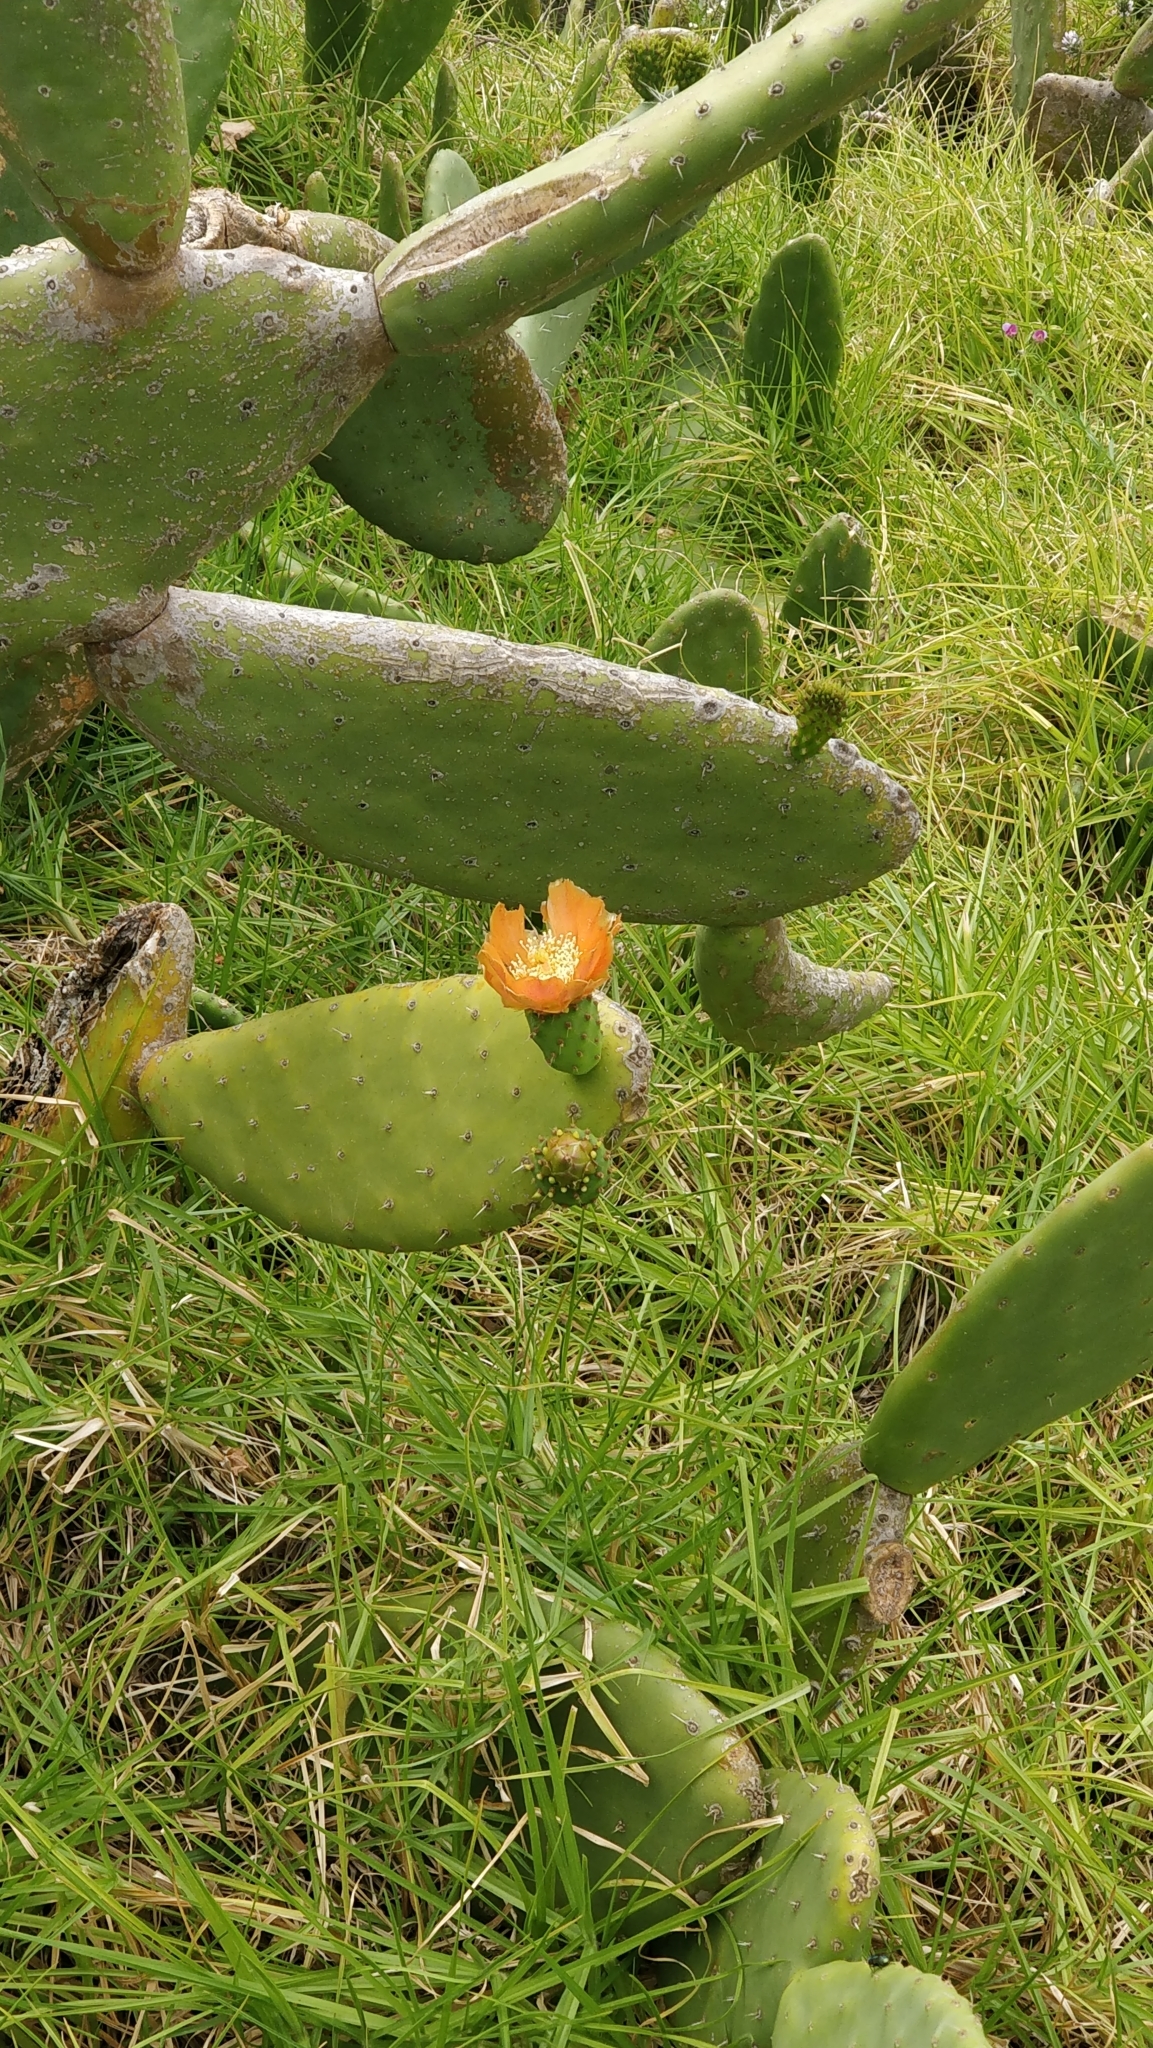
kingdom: Plantae
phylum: Tracheophyta
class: Magnoliopsida
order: Caryophyllales
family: Cactaceae
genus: Opuntia
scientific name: Opuntia ficus-indica
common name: Barbary fig
